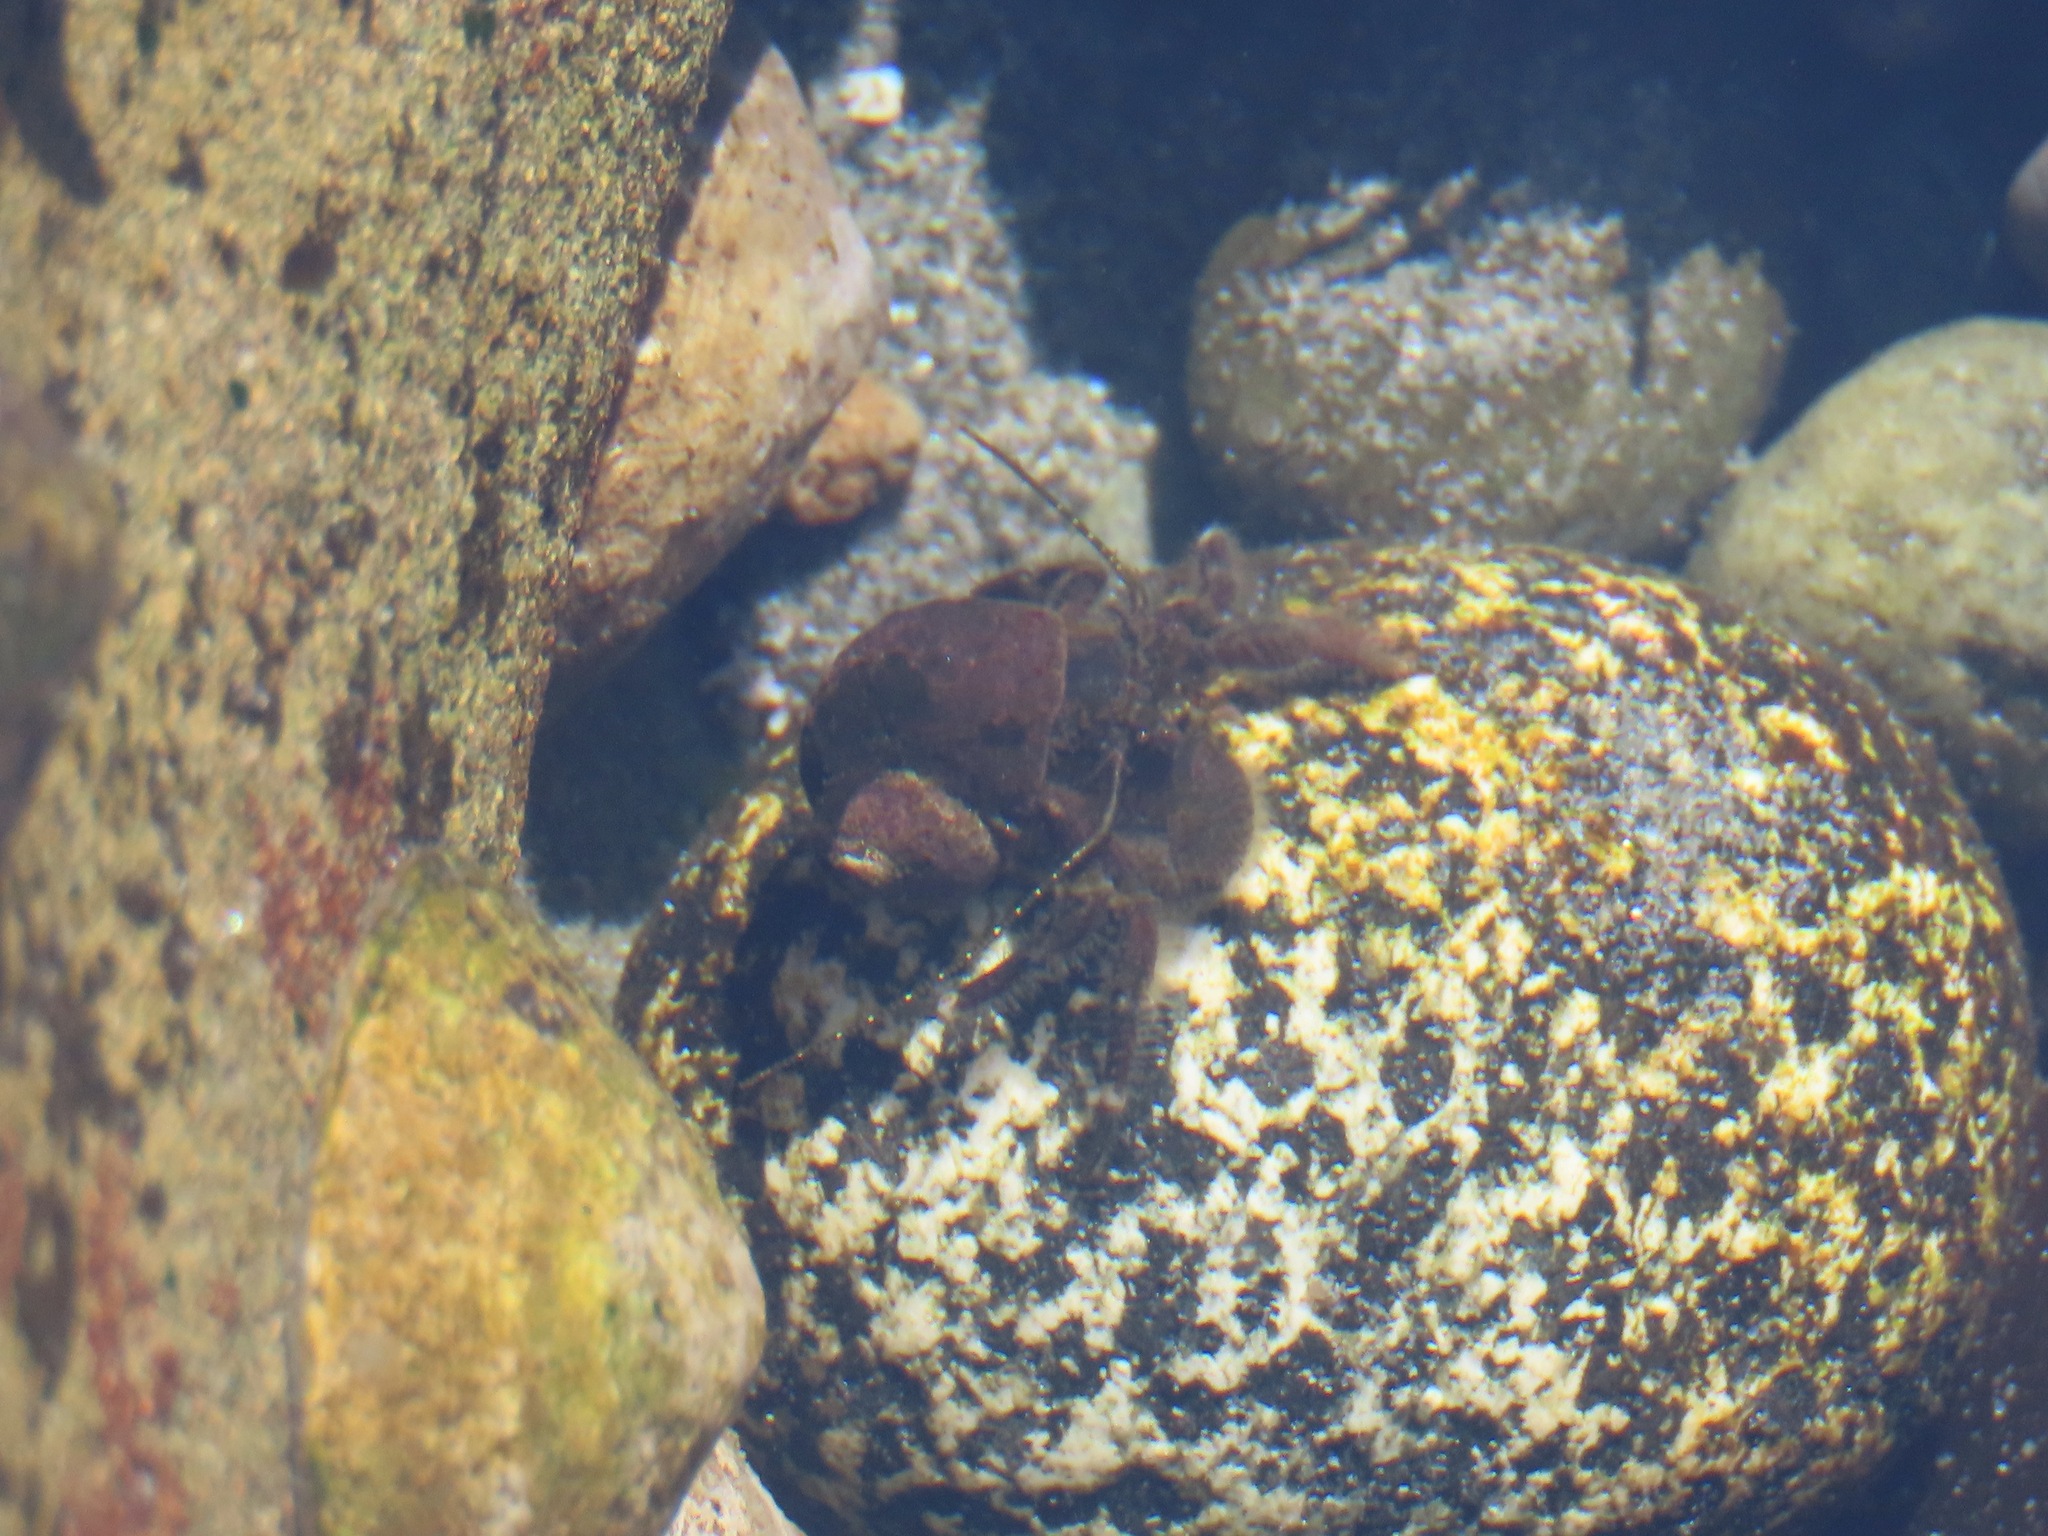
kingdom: Animalia
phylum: Arthropoda
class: Malacostraca
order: Decapoda
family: Paguridae
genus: Pagurus
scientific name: Pagurus hirsutiusculus
